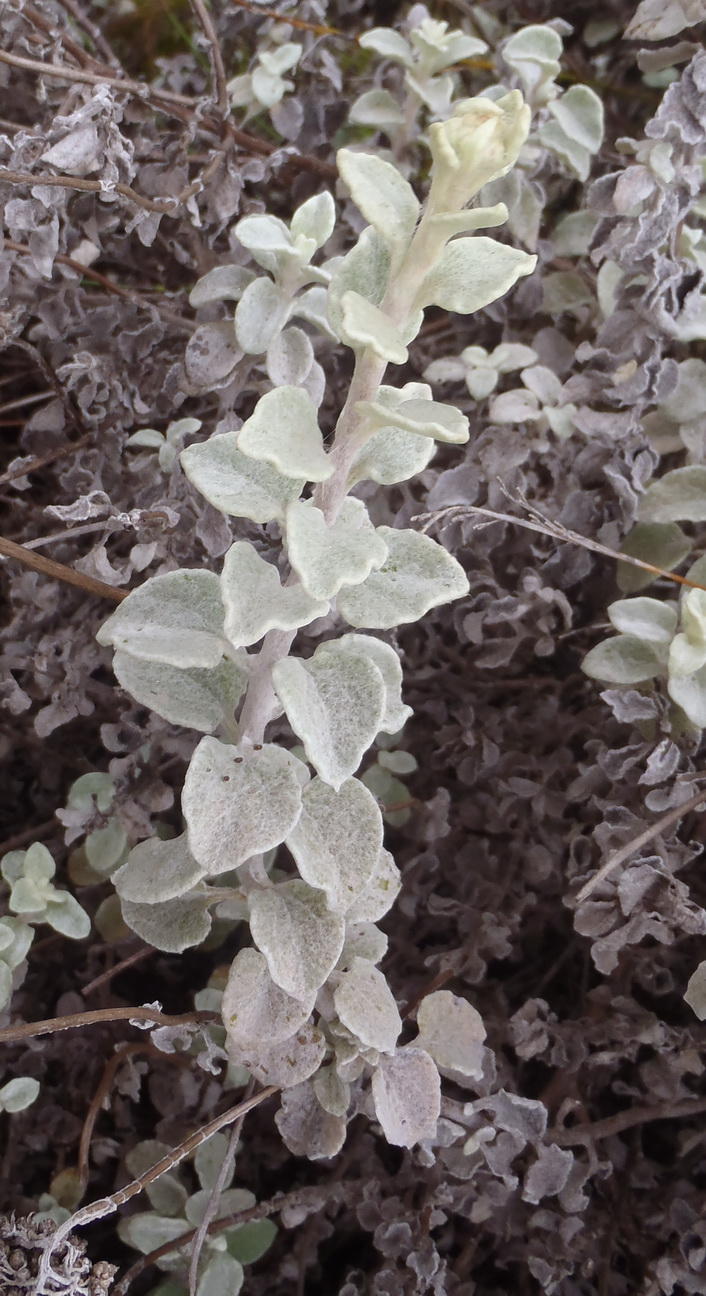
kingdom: Plantae
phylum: Tracheophyta
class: Magnoliopsida
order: Asterales
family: Asteraceae
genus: Helichrysum
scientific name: Helichrysum petiolare
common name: Licorice-plant
